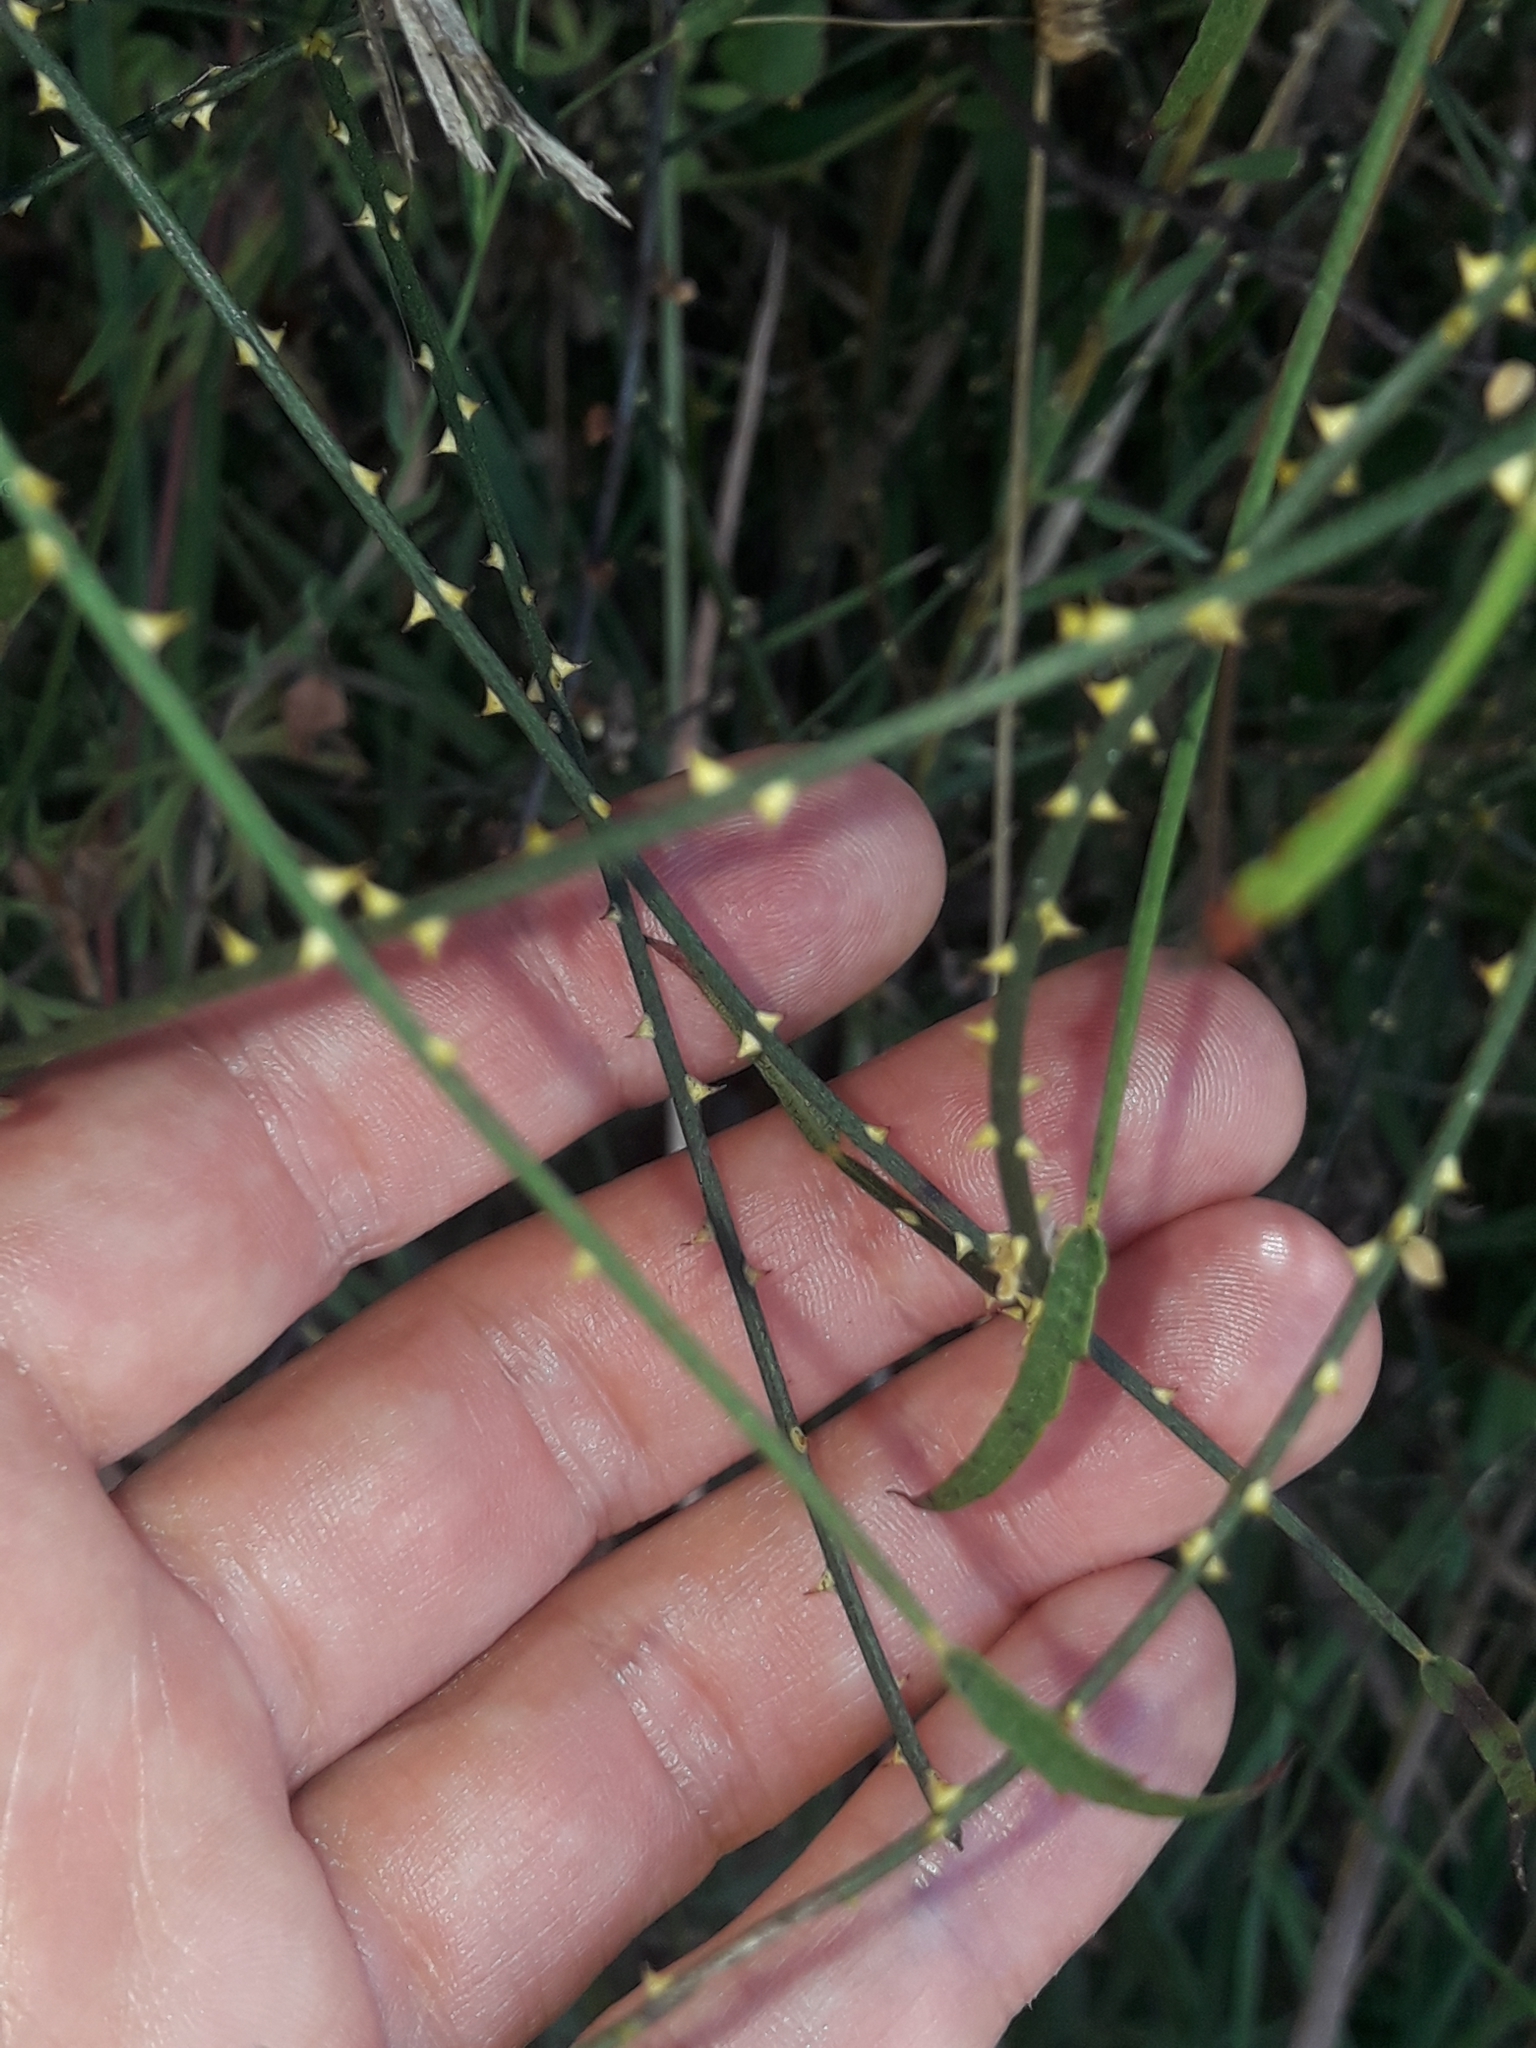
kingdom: Plantae
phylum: Tracheophyta
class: Magnoliopsida
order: Rosales
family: Rosaceae
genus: Rubus
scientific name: Rubus squarrosus
